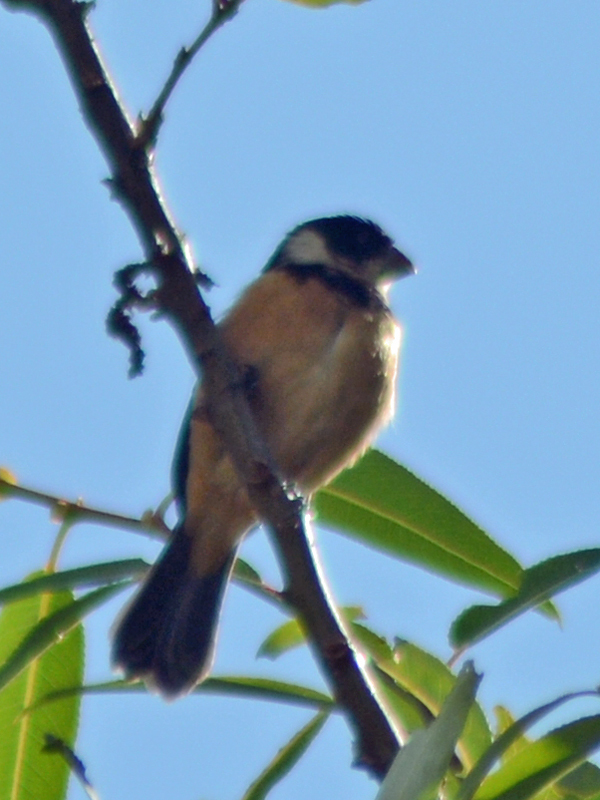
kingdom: Animalia
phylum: Chordata
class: Aves
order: Passeriformes
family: Thraupidae
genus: Sporophila
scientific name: Sporophila torqueola
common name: White-collared seedeater
